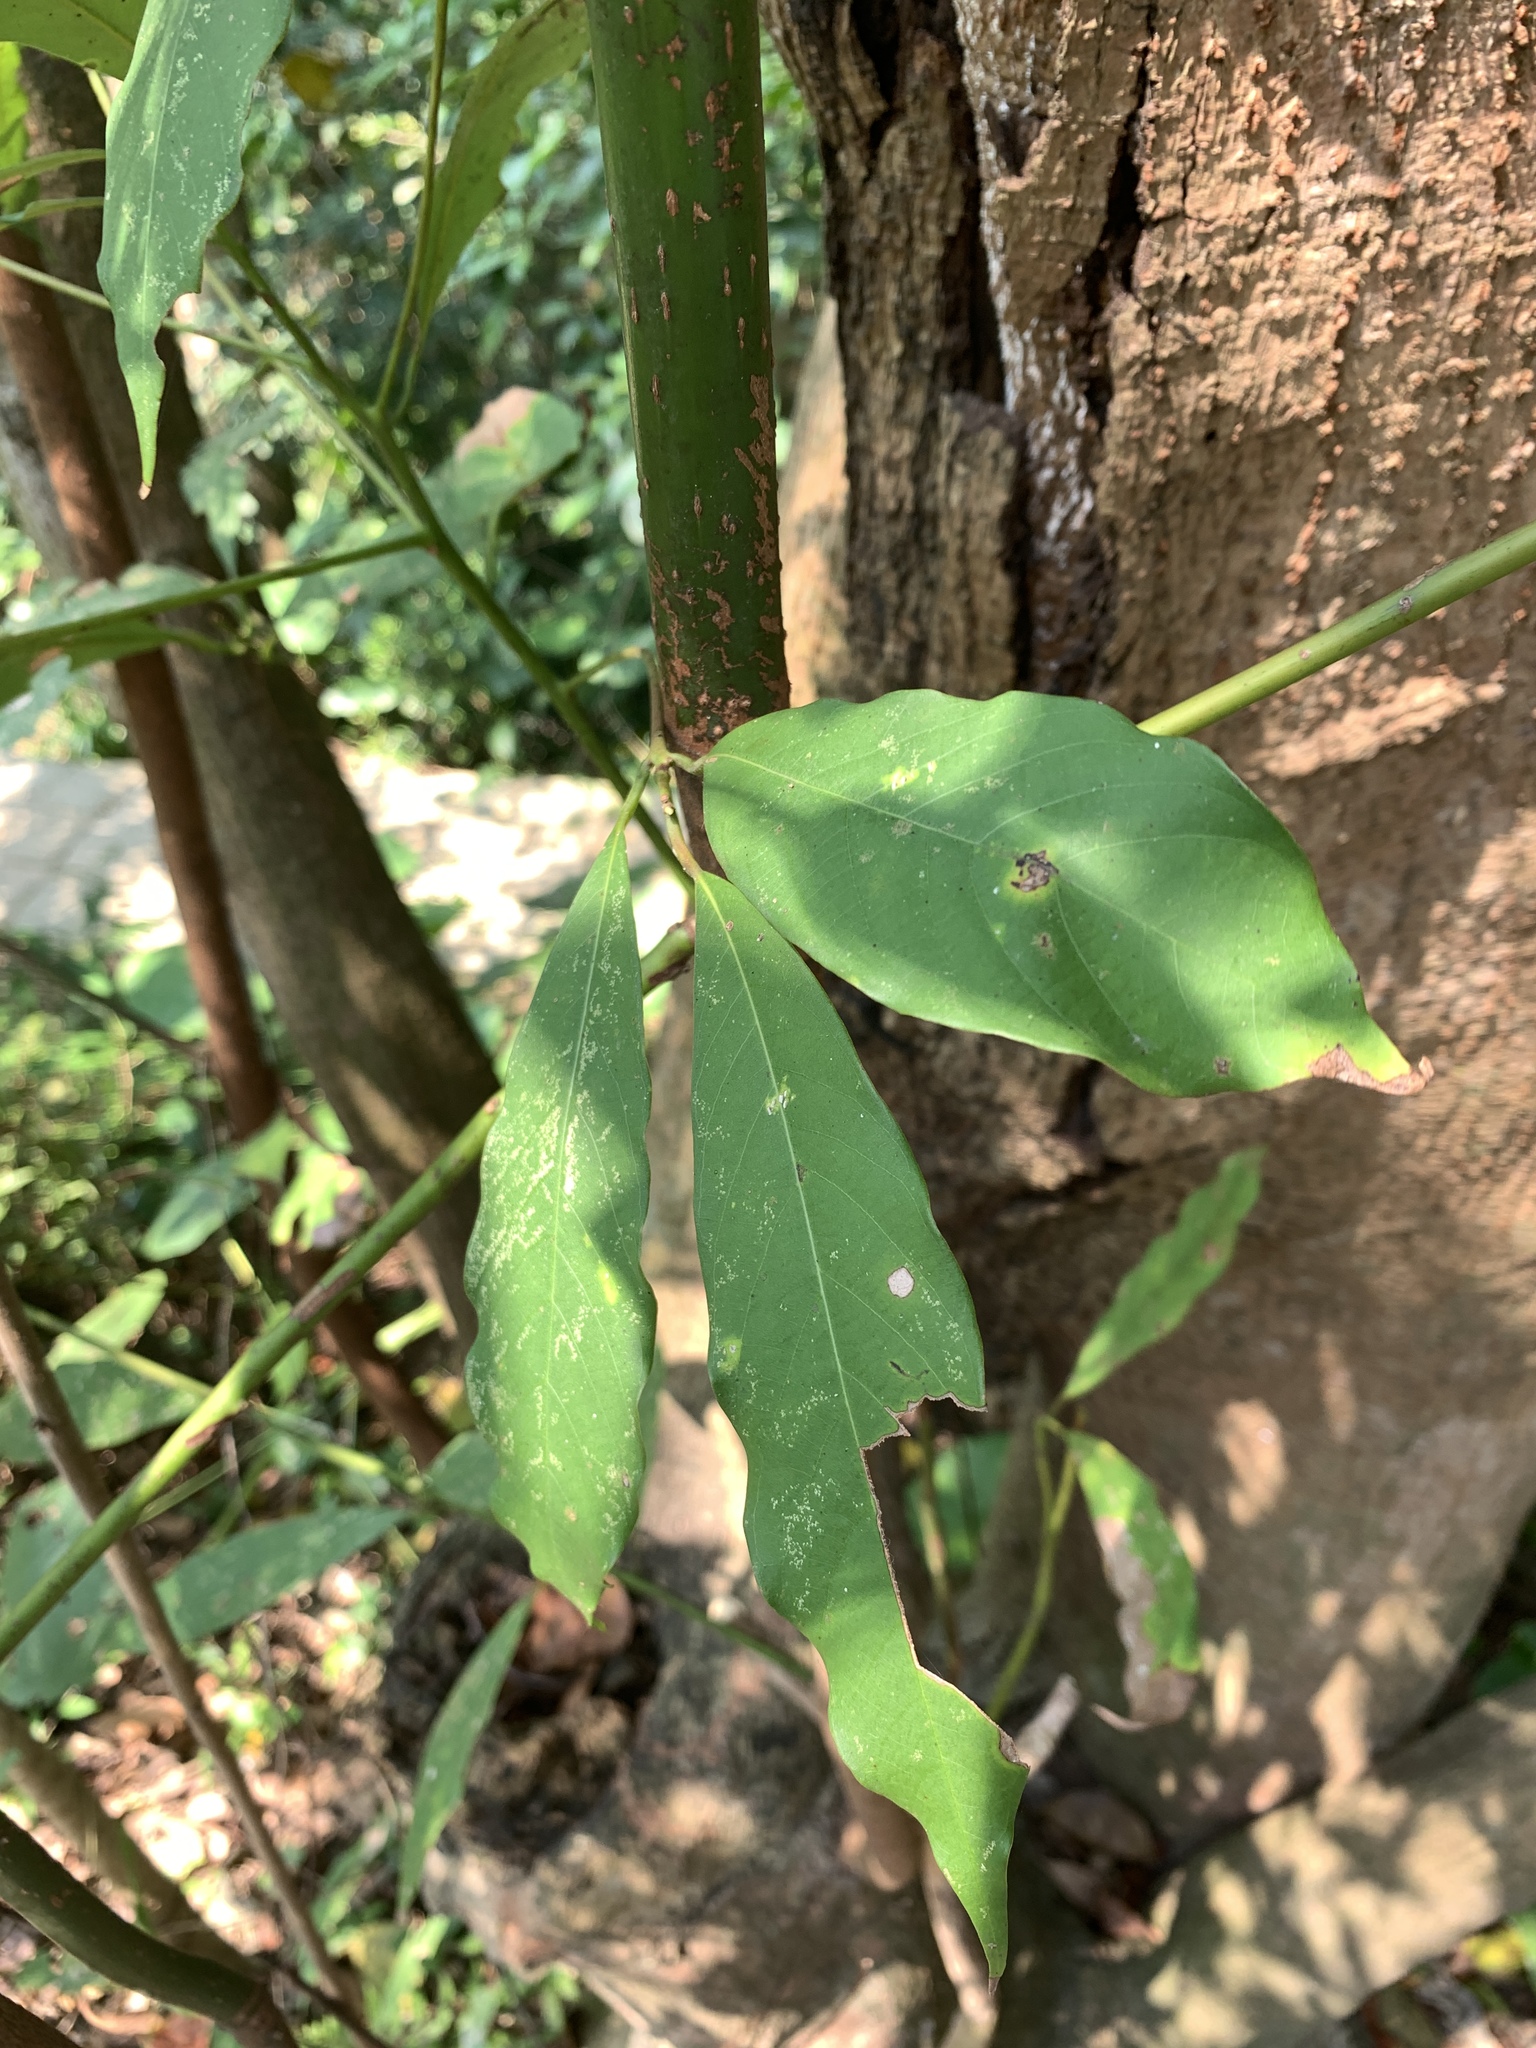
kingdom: Plantae
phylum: Tracheophyta
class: Magnoliopsida
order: Laurales
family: Lauraceae
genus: Machilus
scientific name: Machilus zuihoensis
